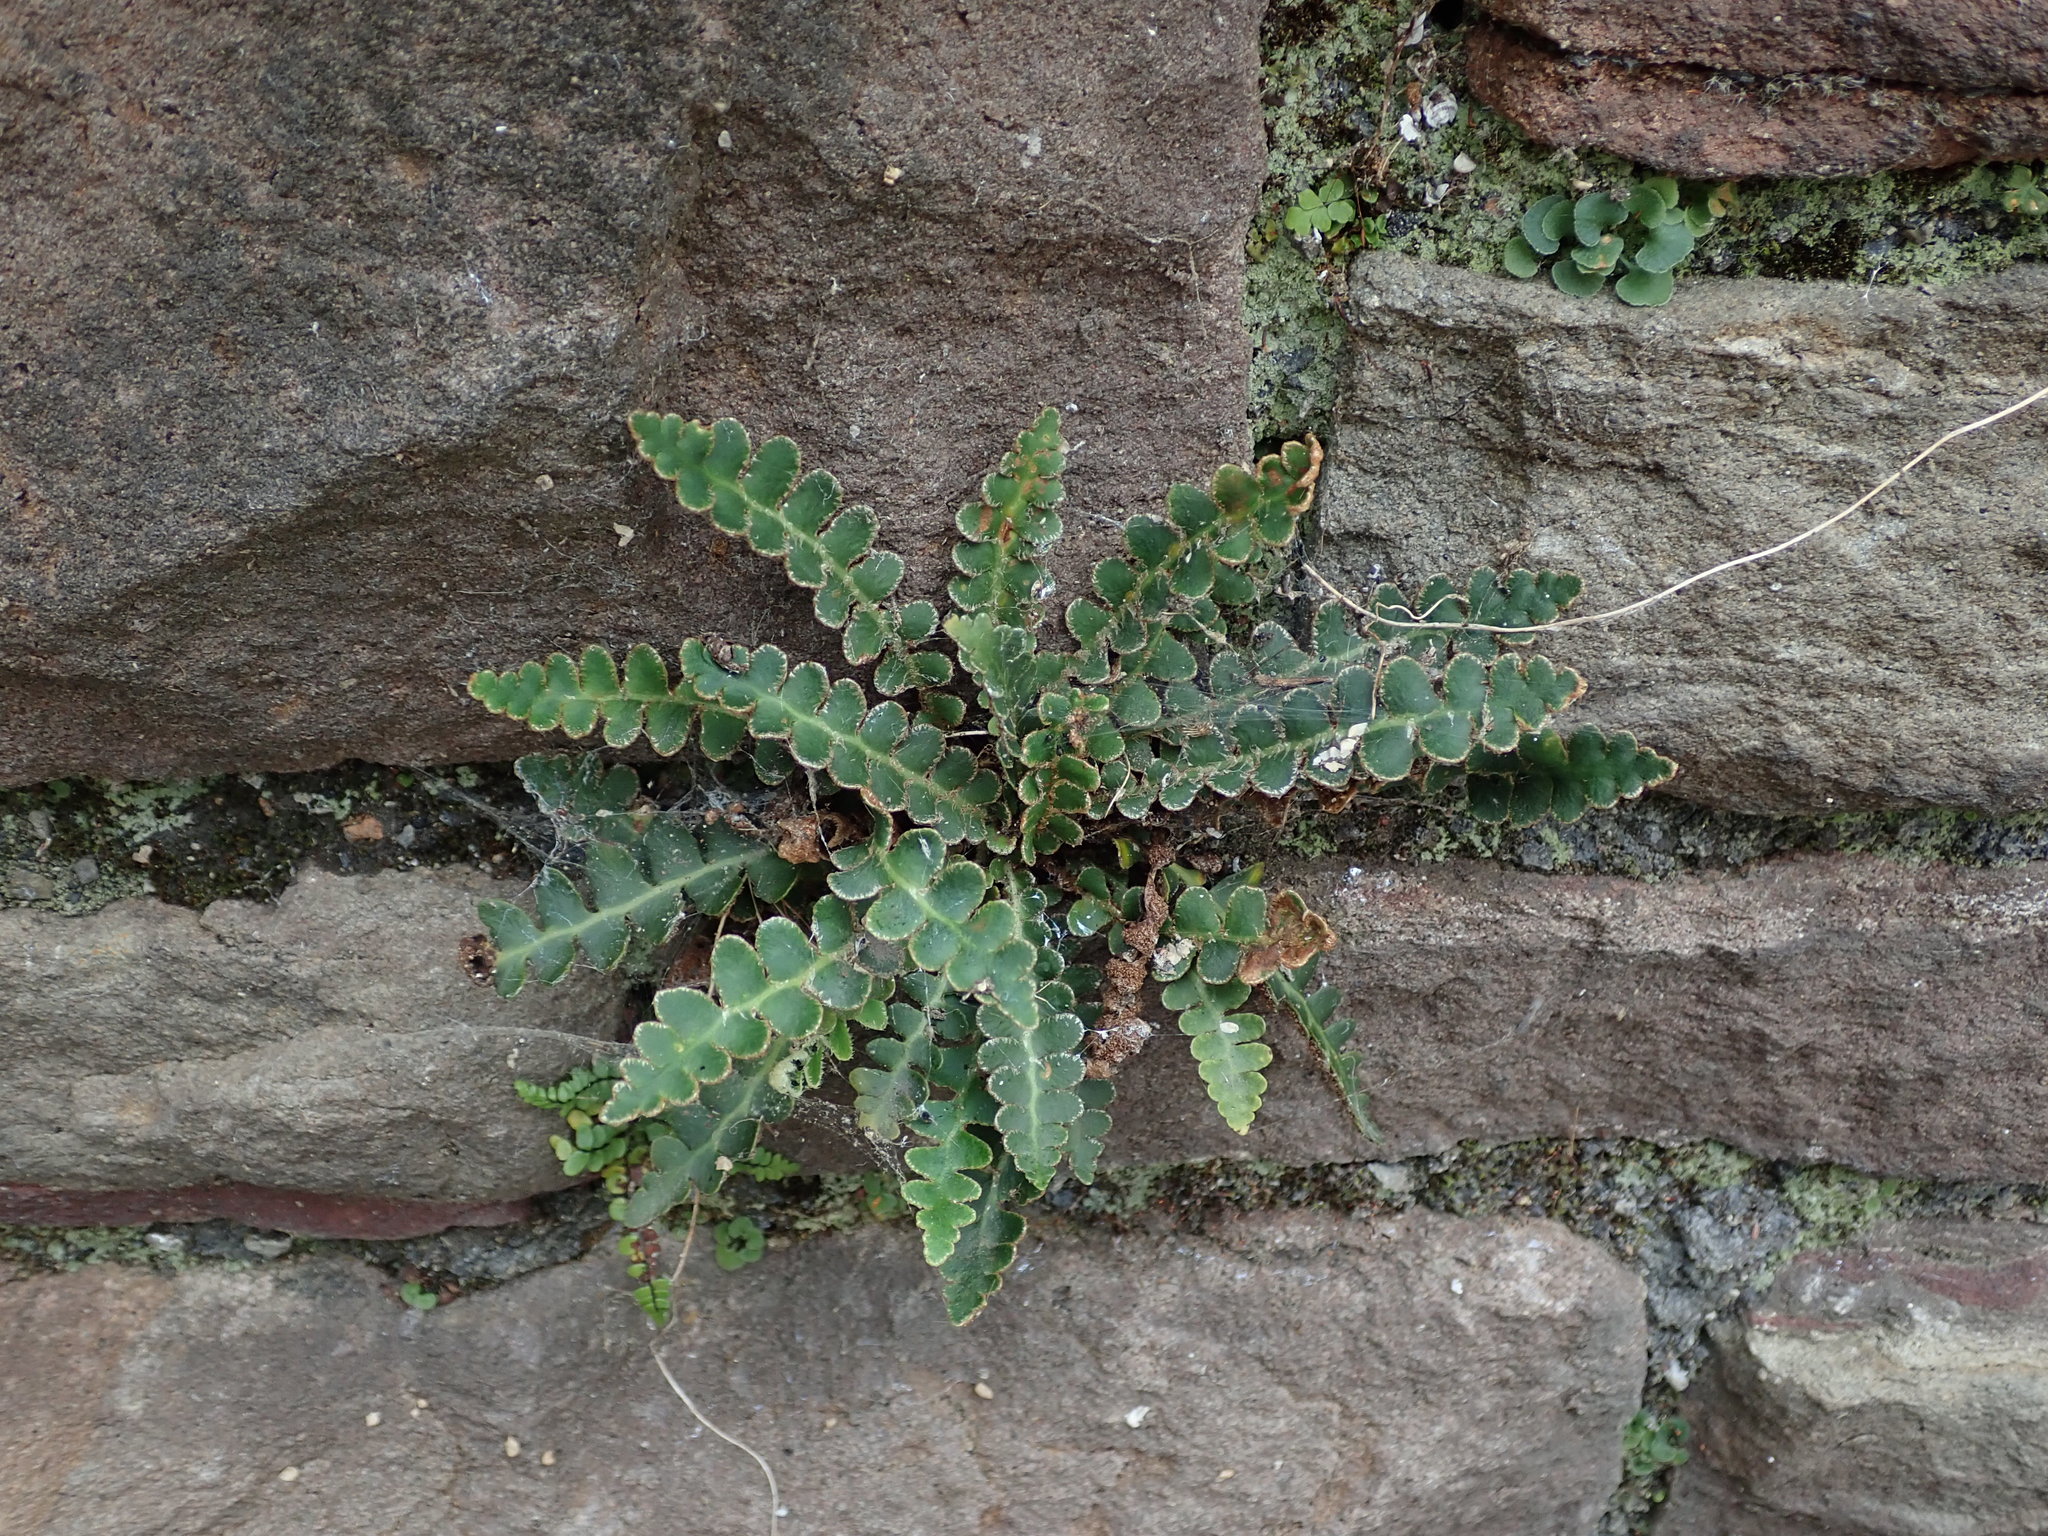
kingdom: Plantae
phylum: Tracheophyta
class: Polypodiopsida
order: Polypodiales
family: Aspleniaceae
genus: Asplenium
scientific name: Asplenium ceterach
